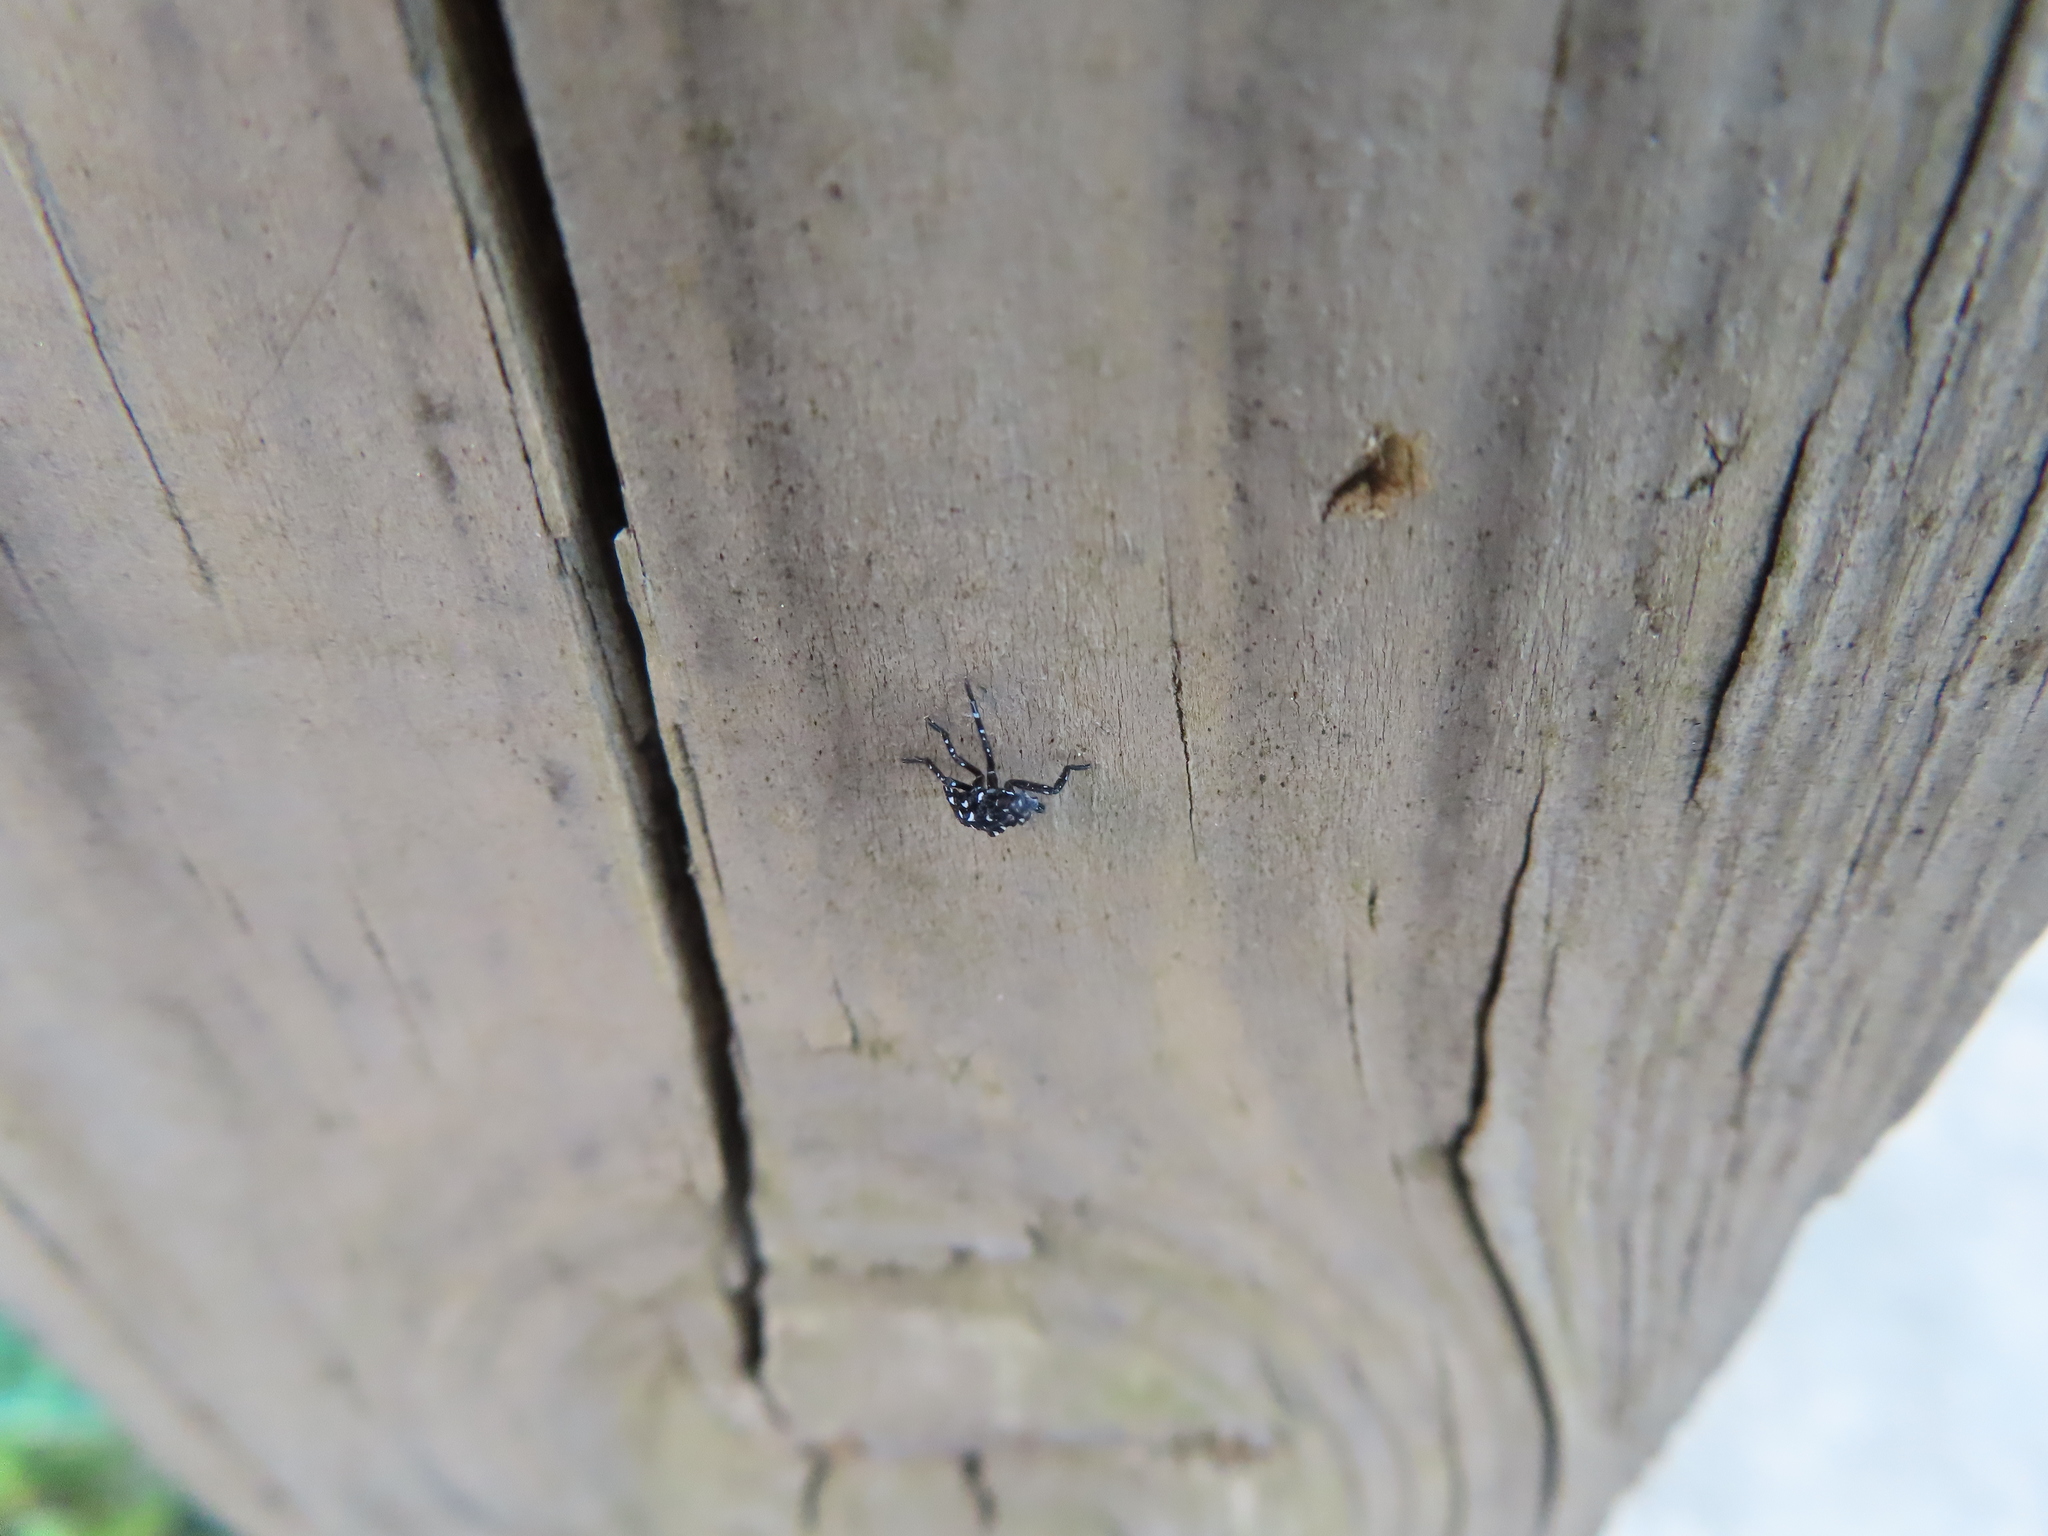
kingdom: Animalia
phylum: Arthropoda
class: Insecta
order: Hemiptera
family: Fulgoridae
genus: Lycorma
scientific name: Lycorma delicatula
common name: Spotted lanternfly
